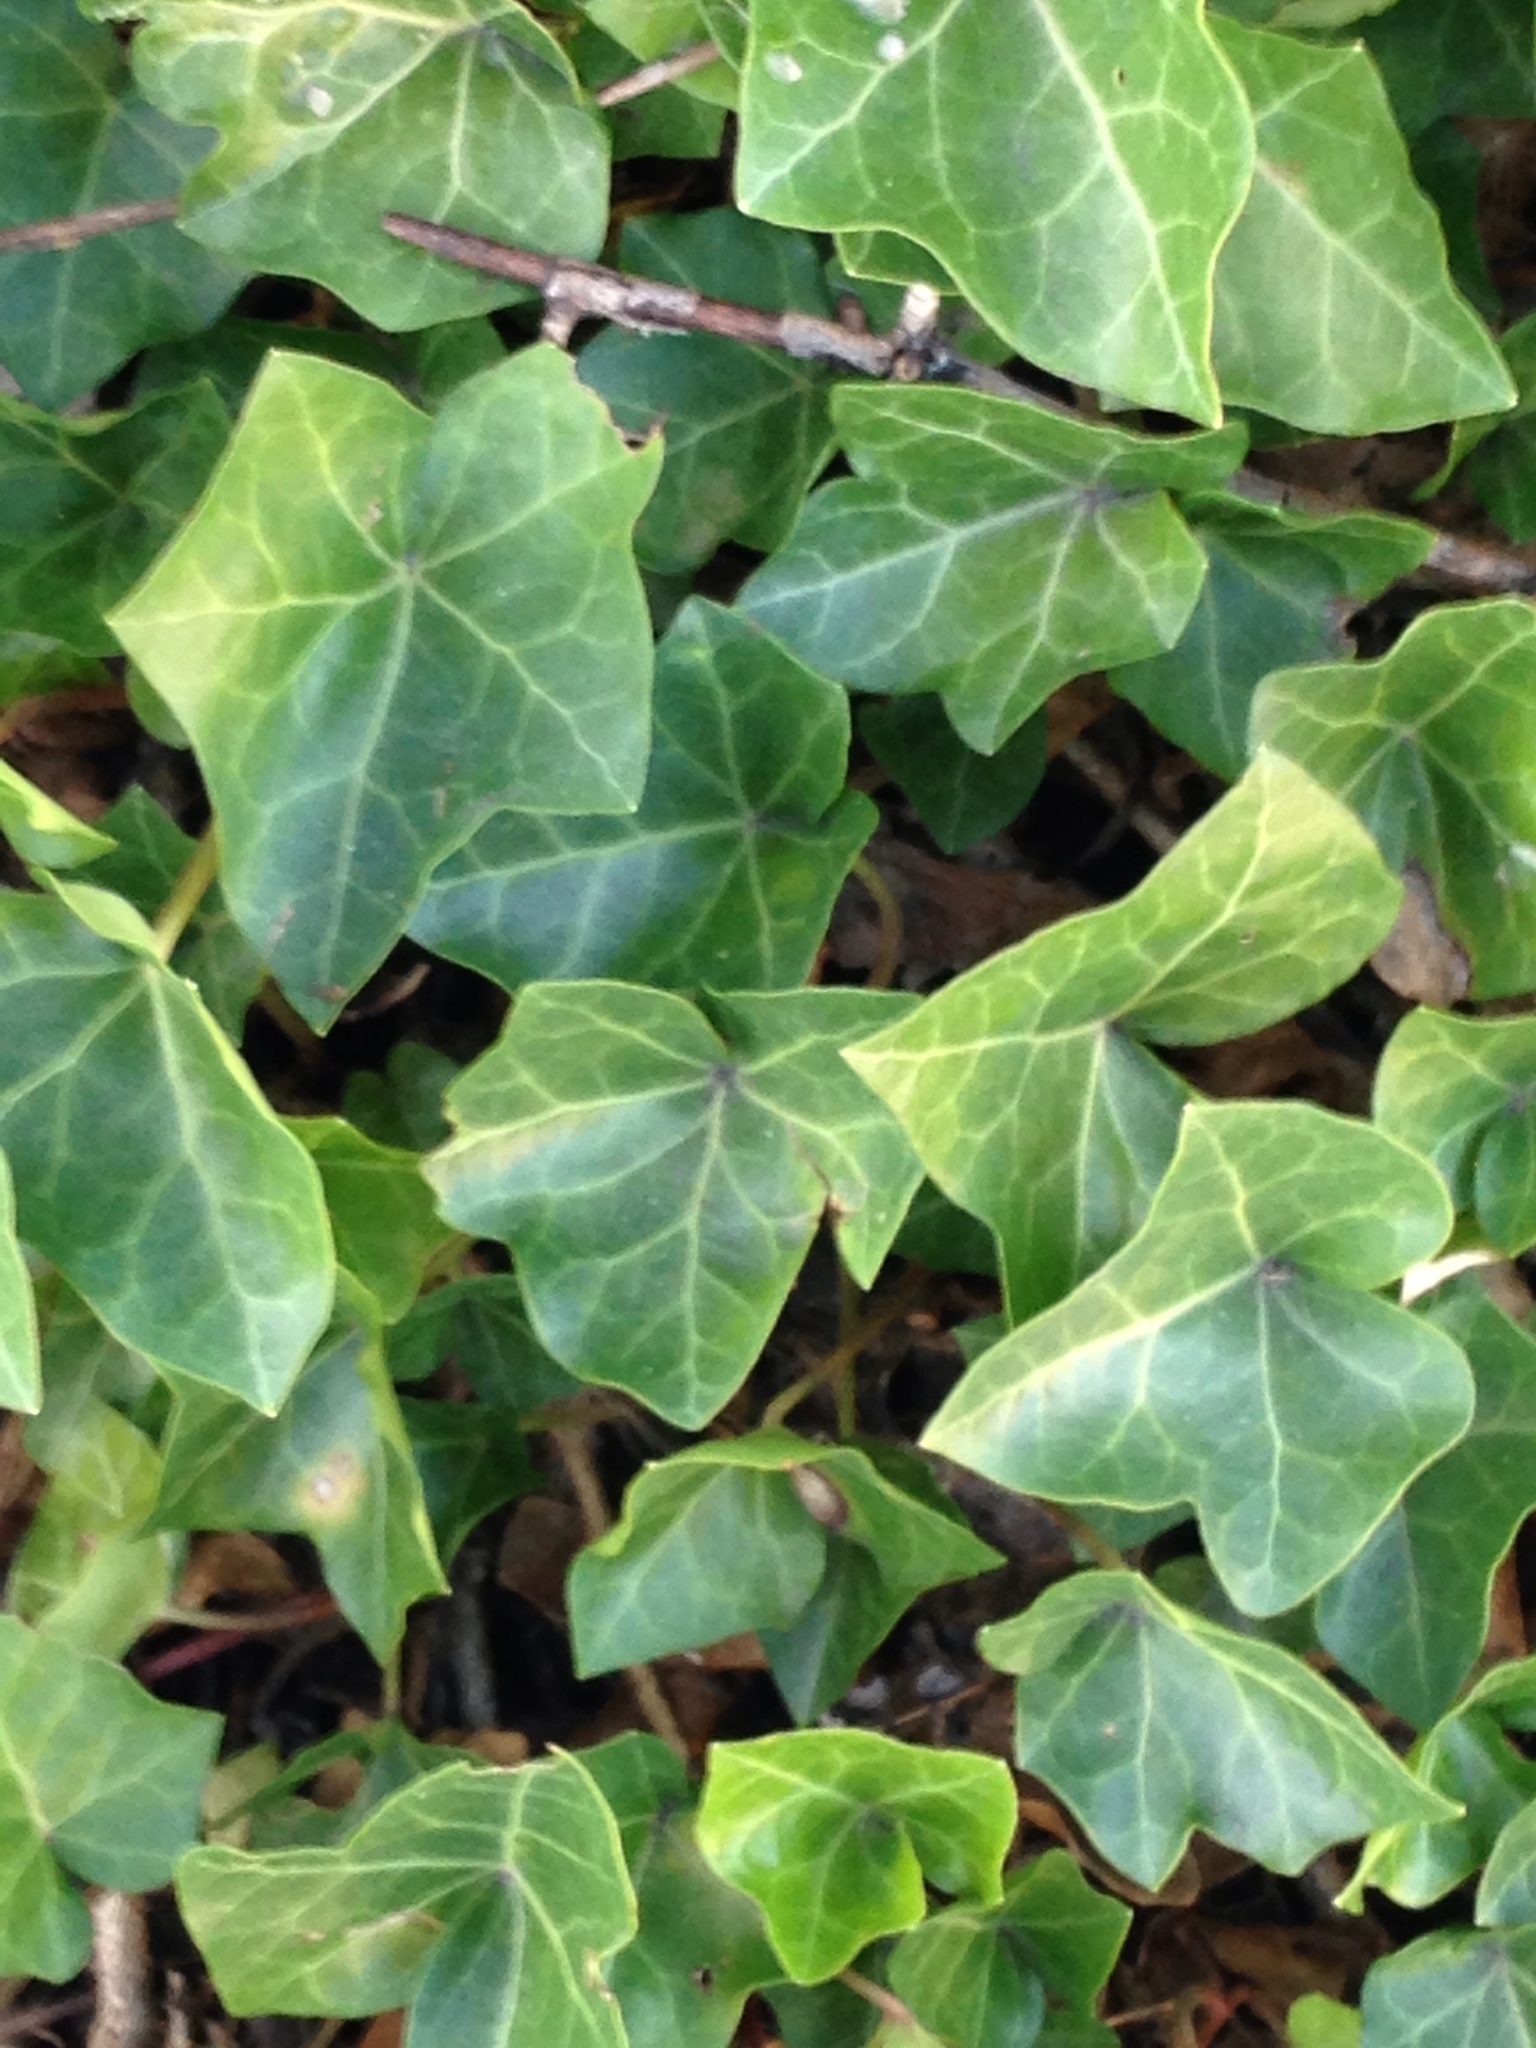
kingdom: Plantae
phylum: Tracheophyta
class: Magnoliopsida
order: Apiales
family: Araliaceae
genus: Hedera
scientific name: Hedera helix
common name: Ivy
